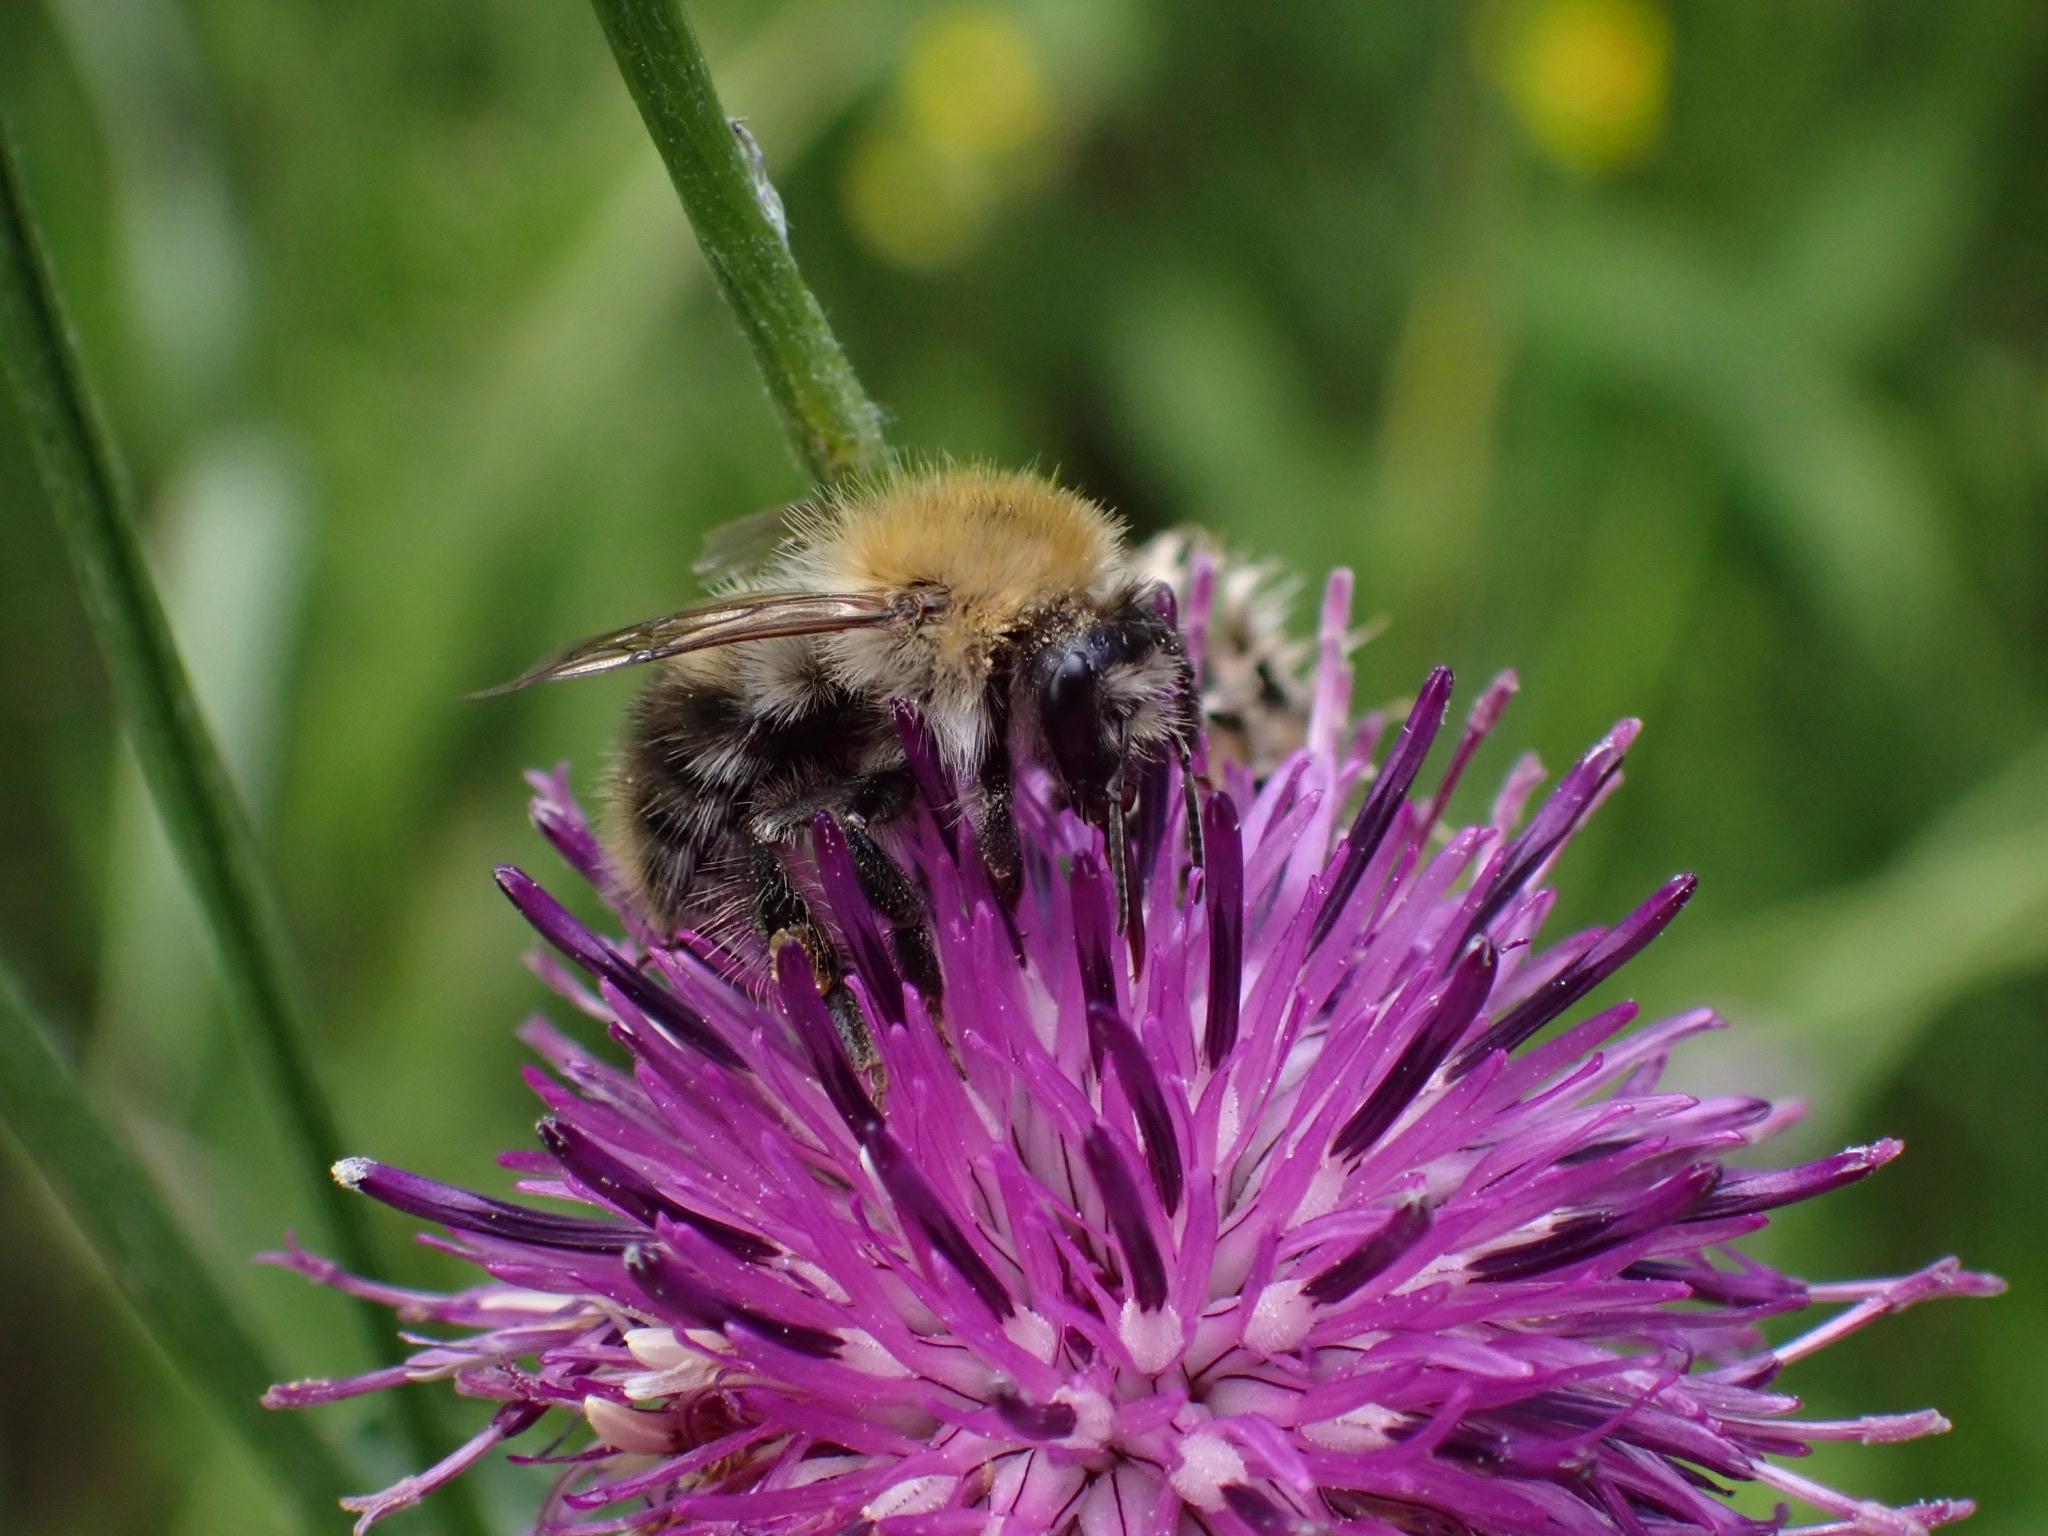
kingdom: Animalia
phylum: Arthropoda
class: Insecta
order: Hymenoptera
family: Apidae
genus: Bombus
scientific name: Bombus pascuorum
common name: Common carder bee
